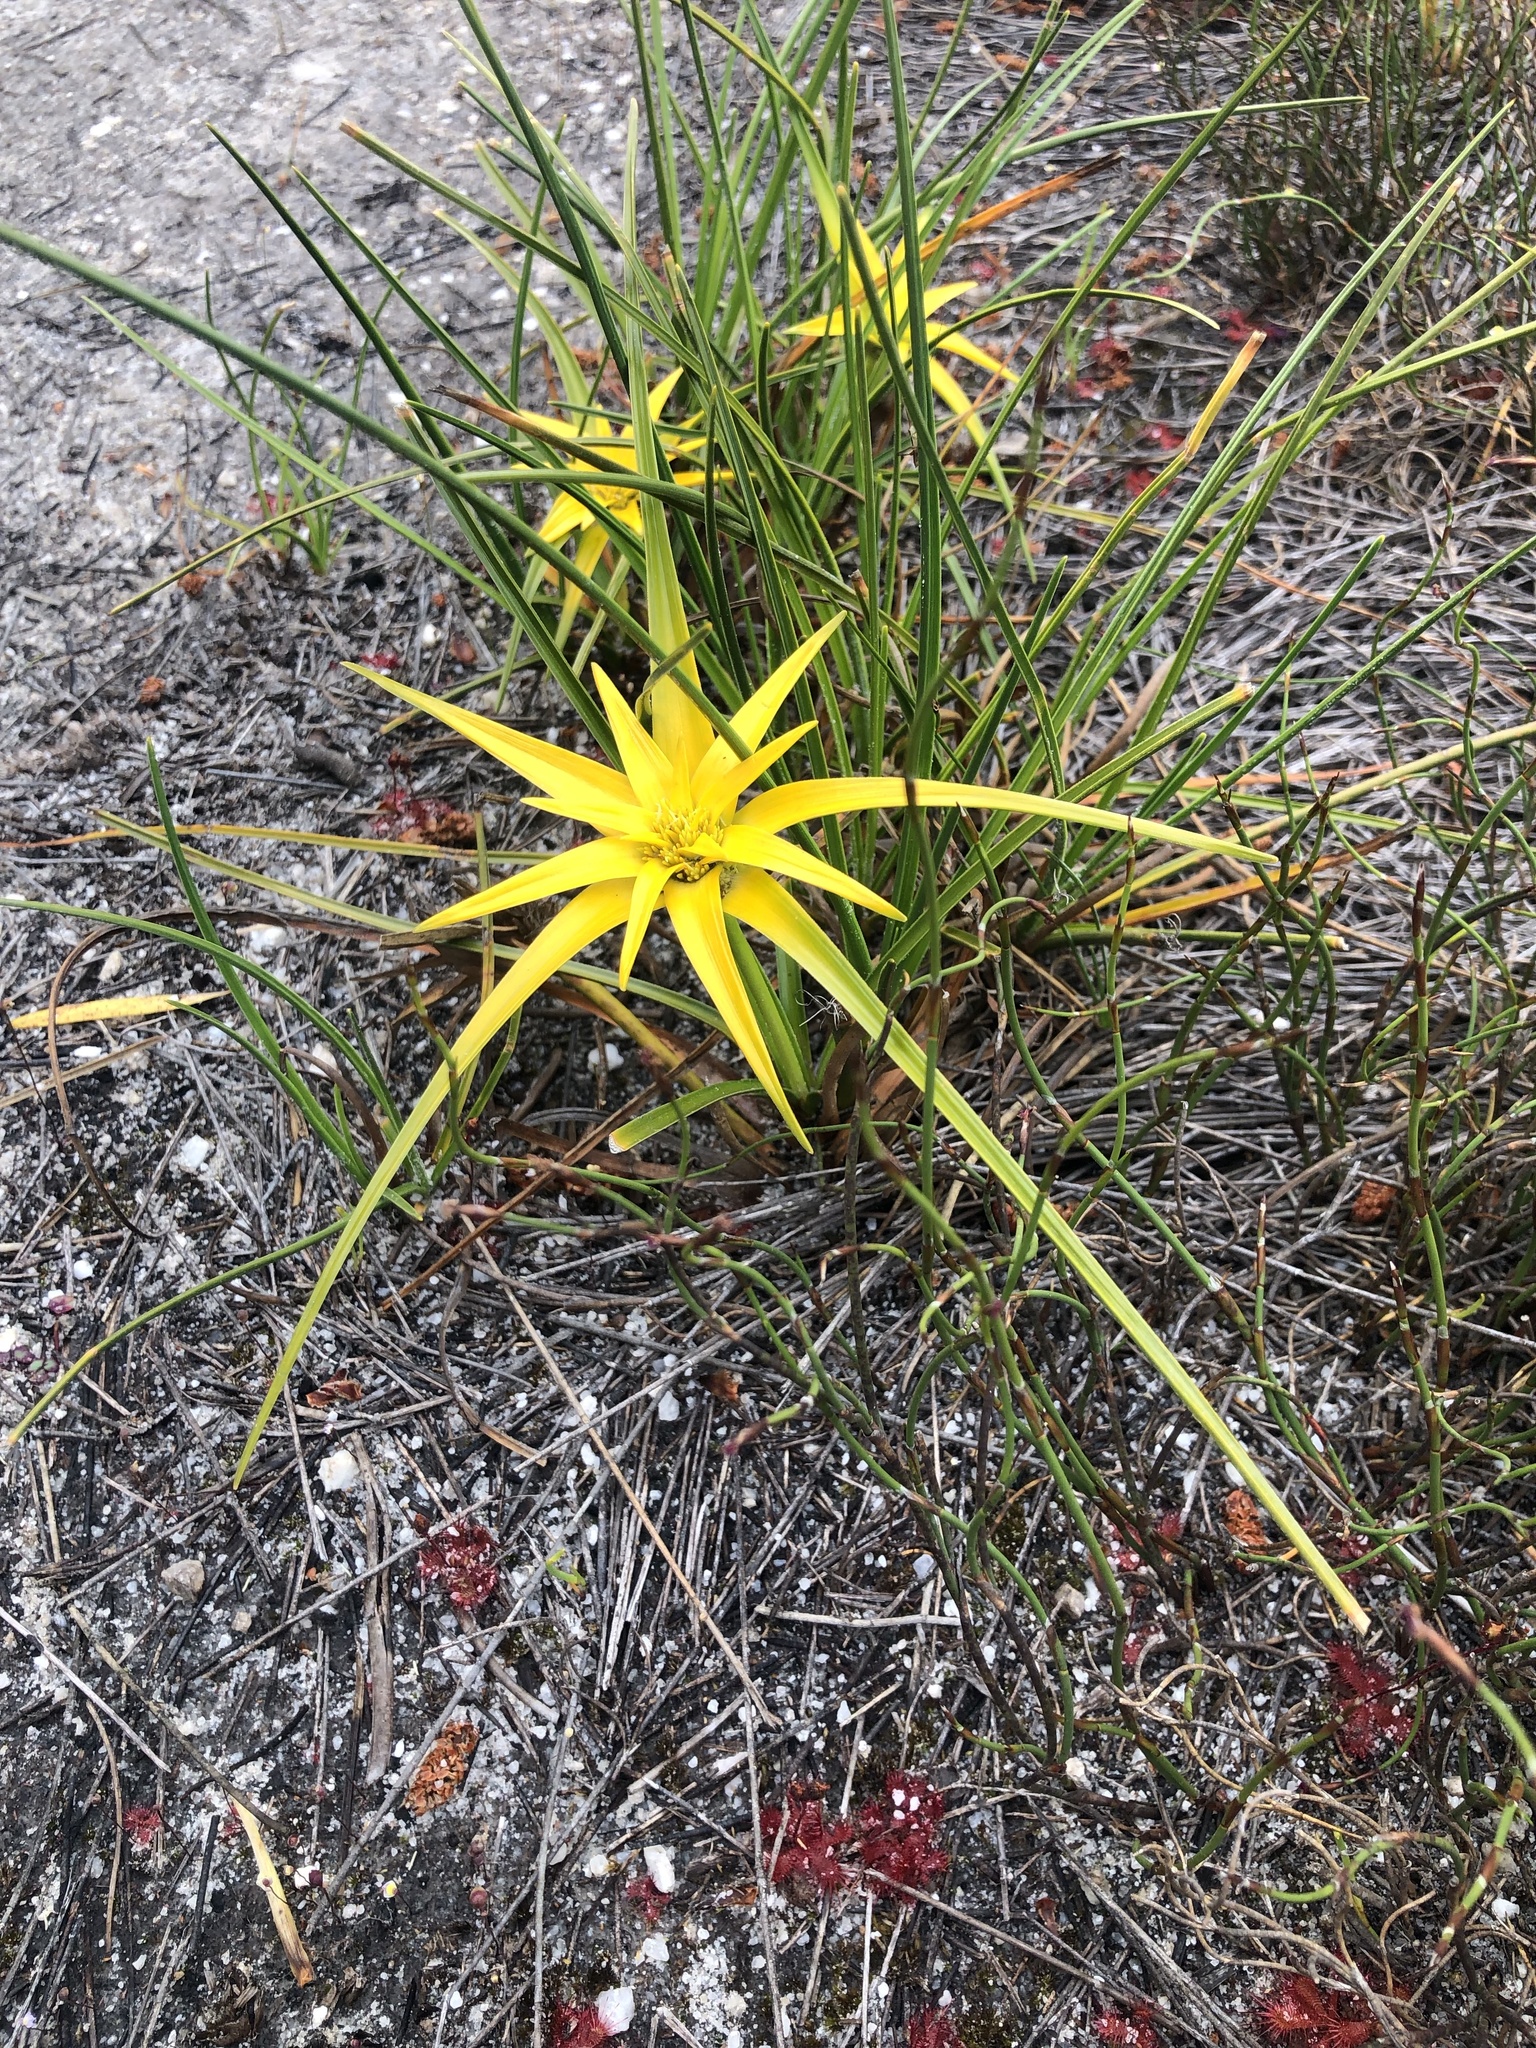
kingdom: Plantae
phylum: Tracheophyta
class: Liliopsida
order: Poales
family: Cyperaceae
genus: Ficinia
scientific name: Ficinia radiata
